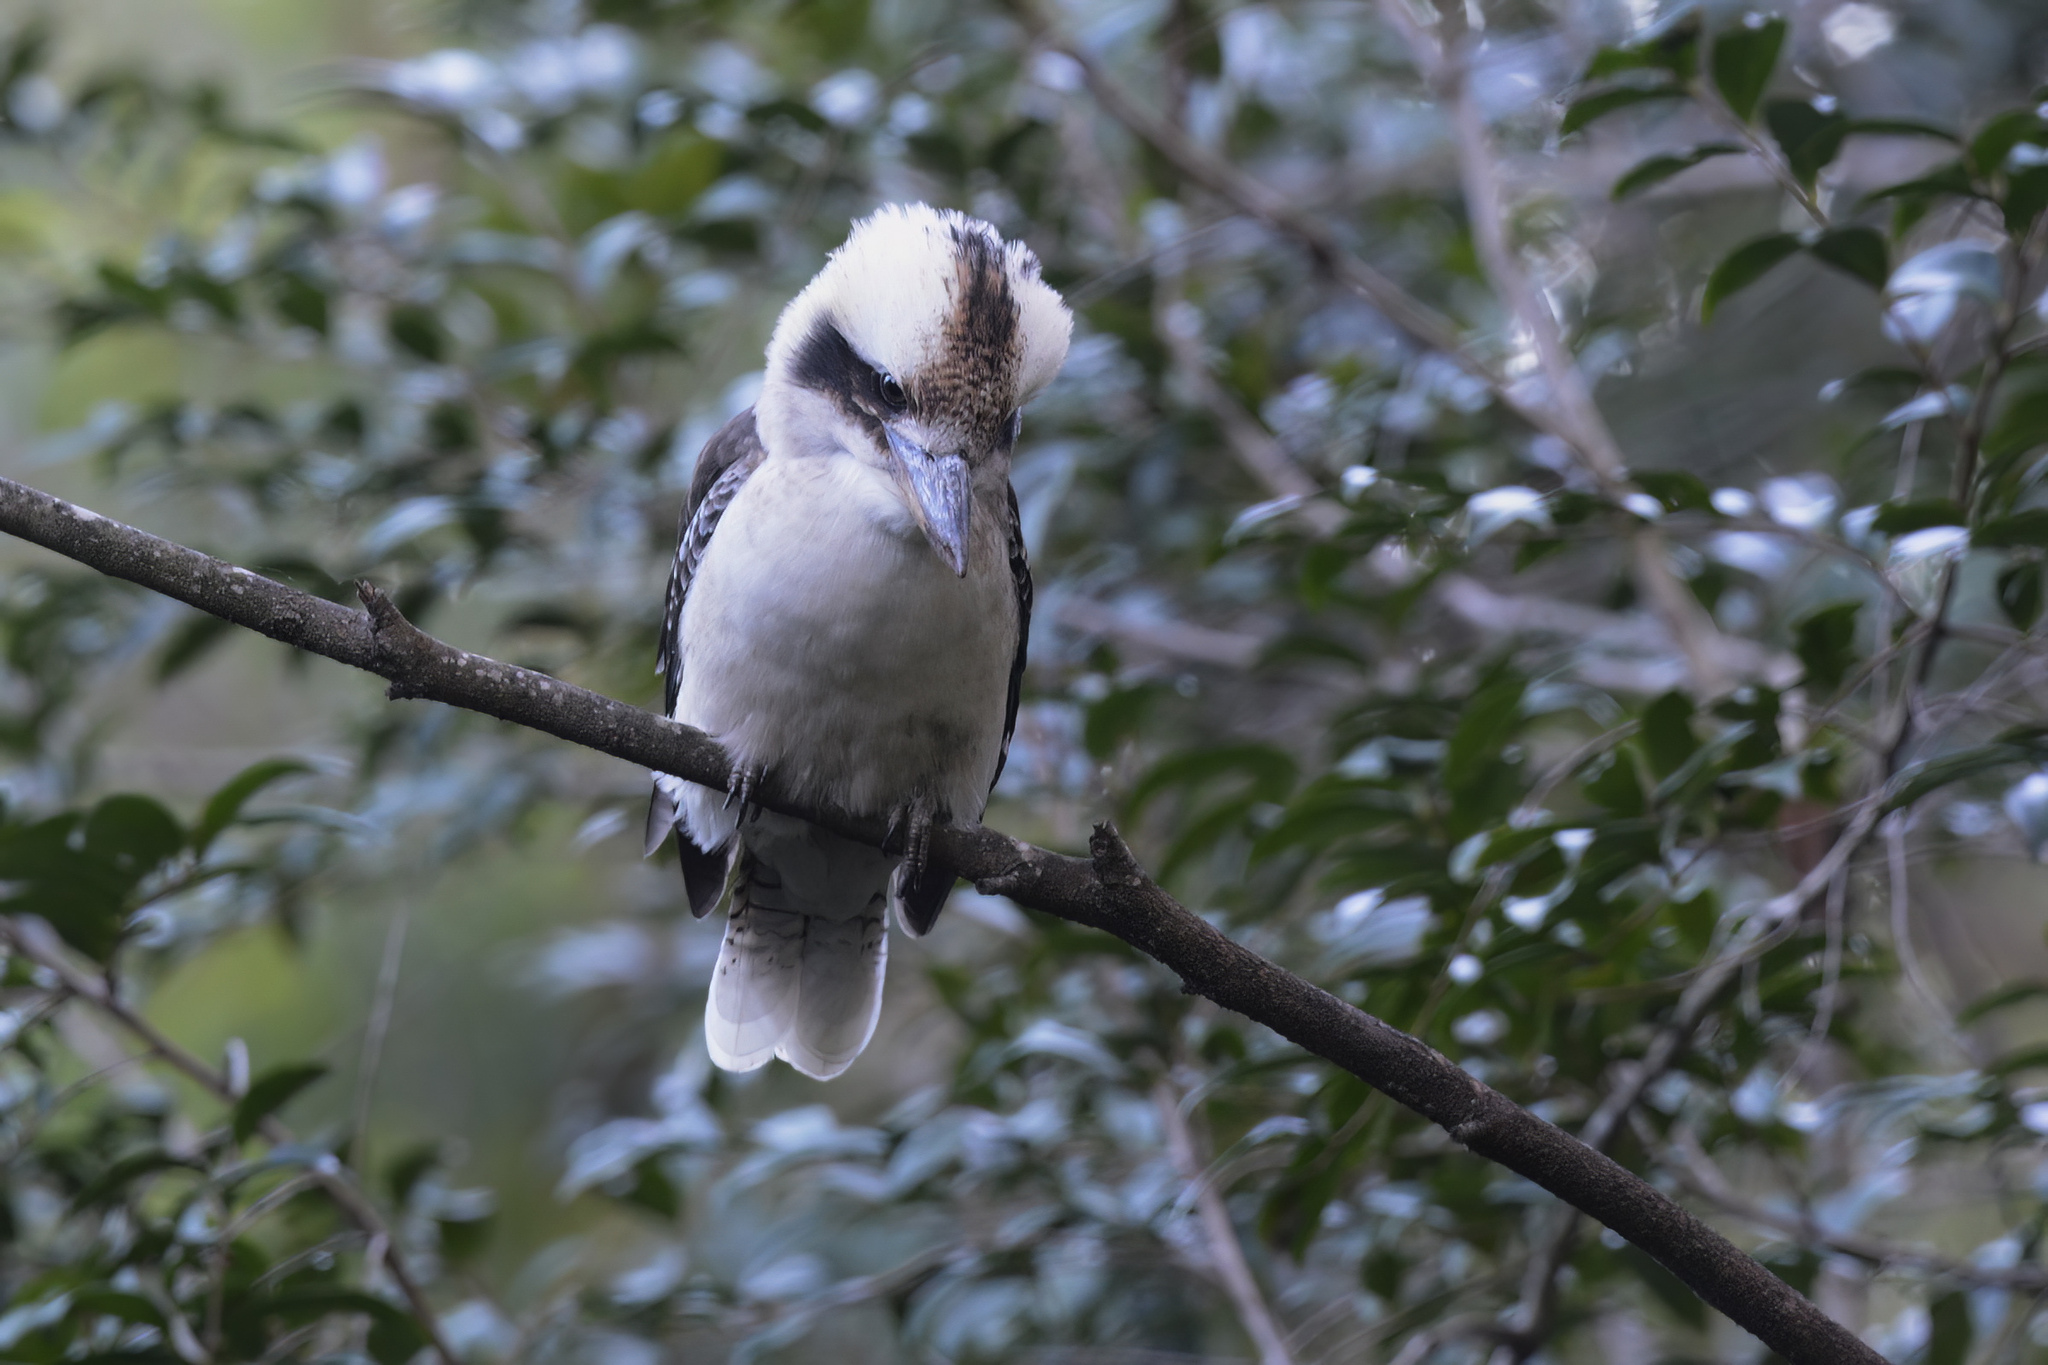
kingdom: Animalia
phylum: Chordata
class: Aves
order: Coraciiformes
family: Alcedinidae
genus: Dacelo
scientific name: Dacelo novaeguineae
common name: Laughing kookaburra
